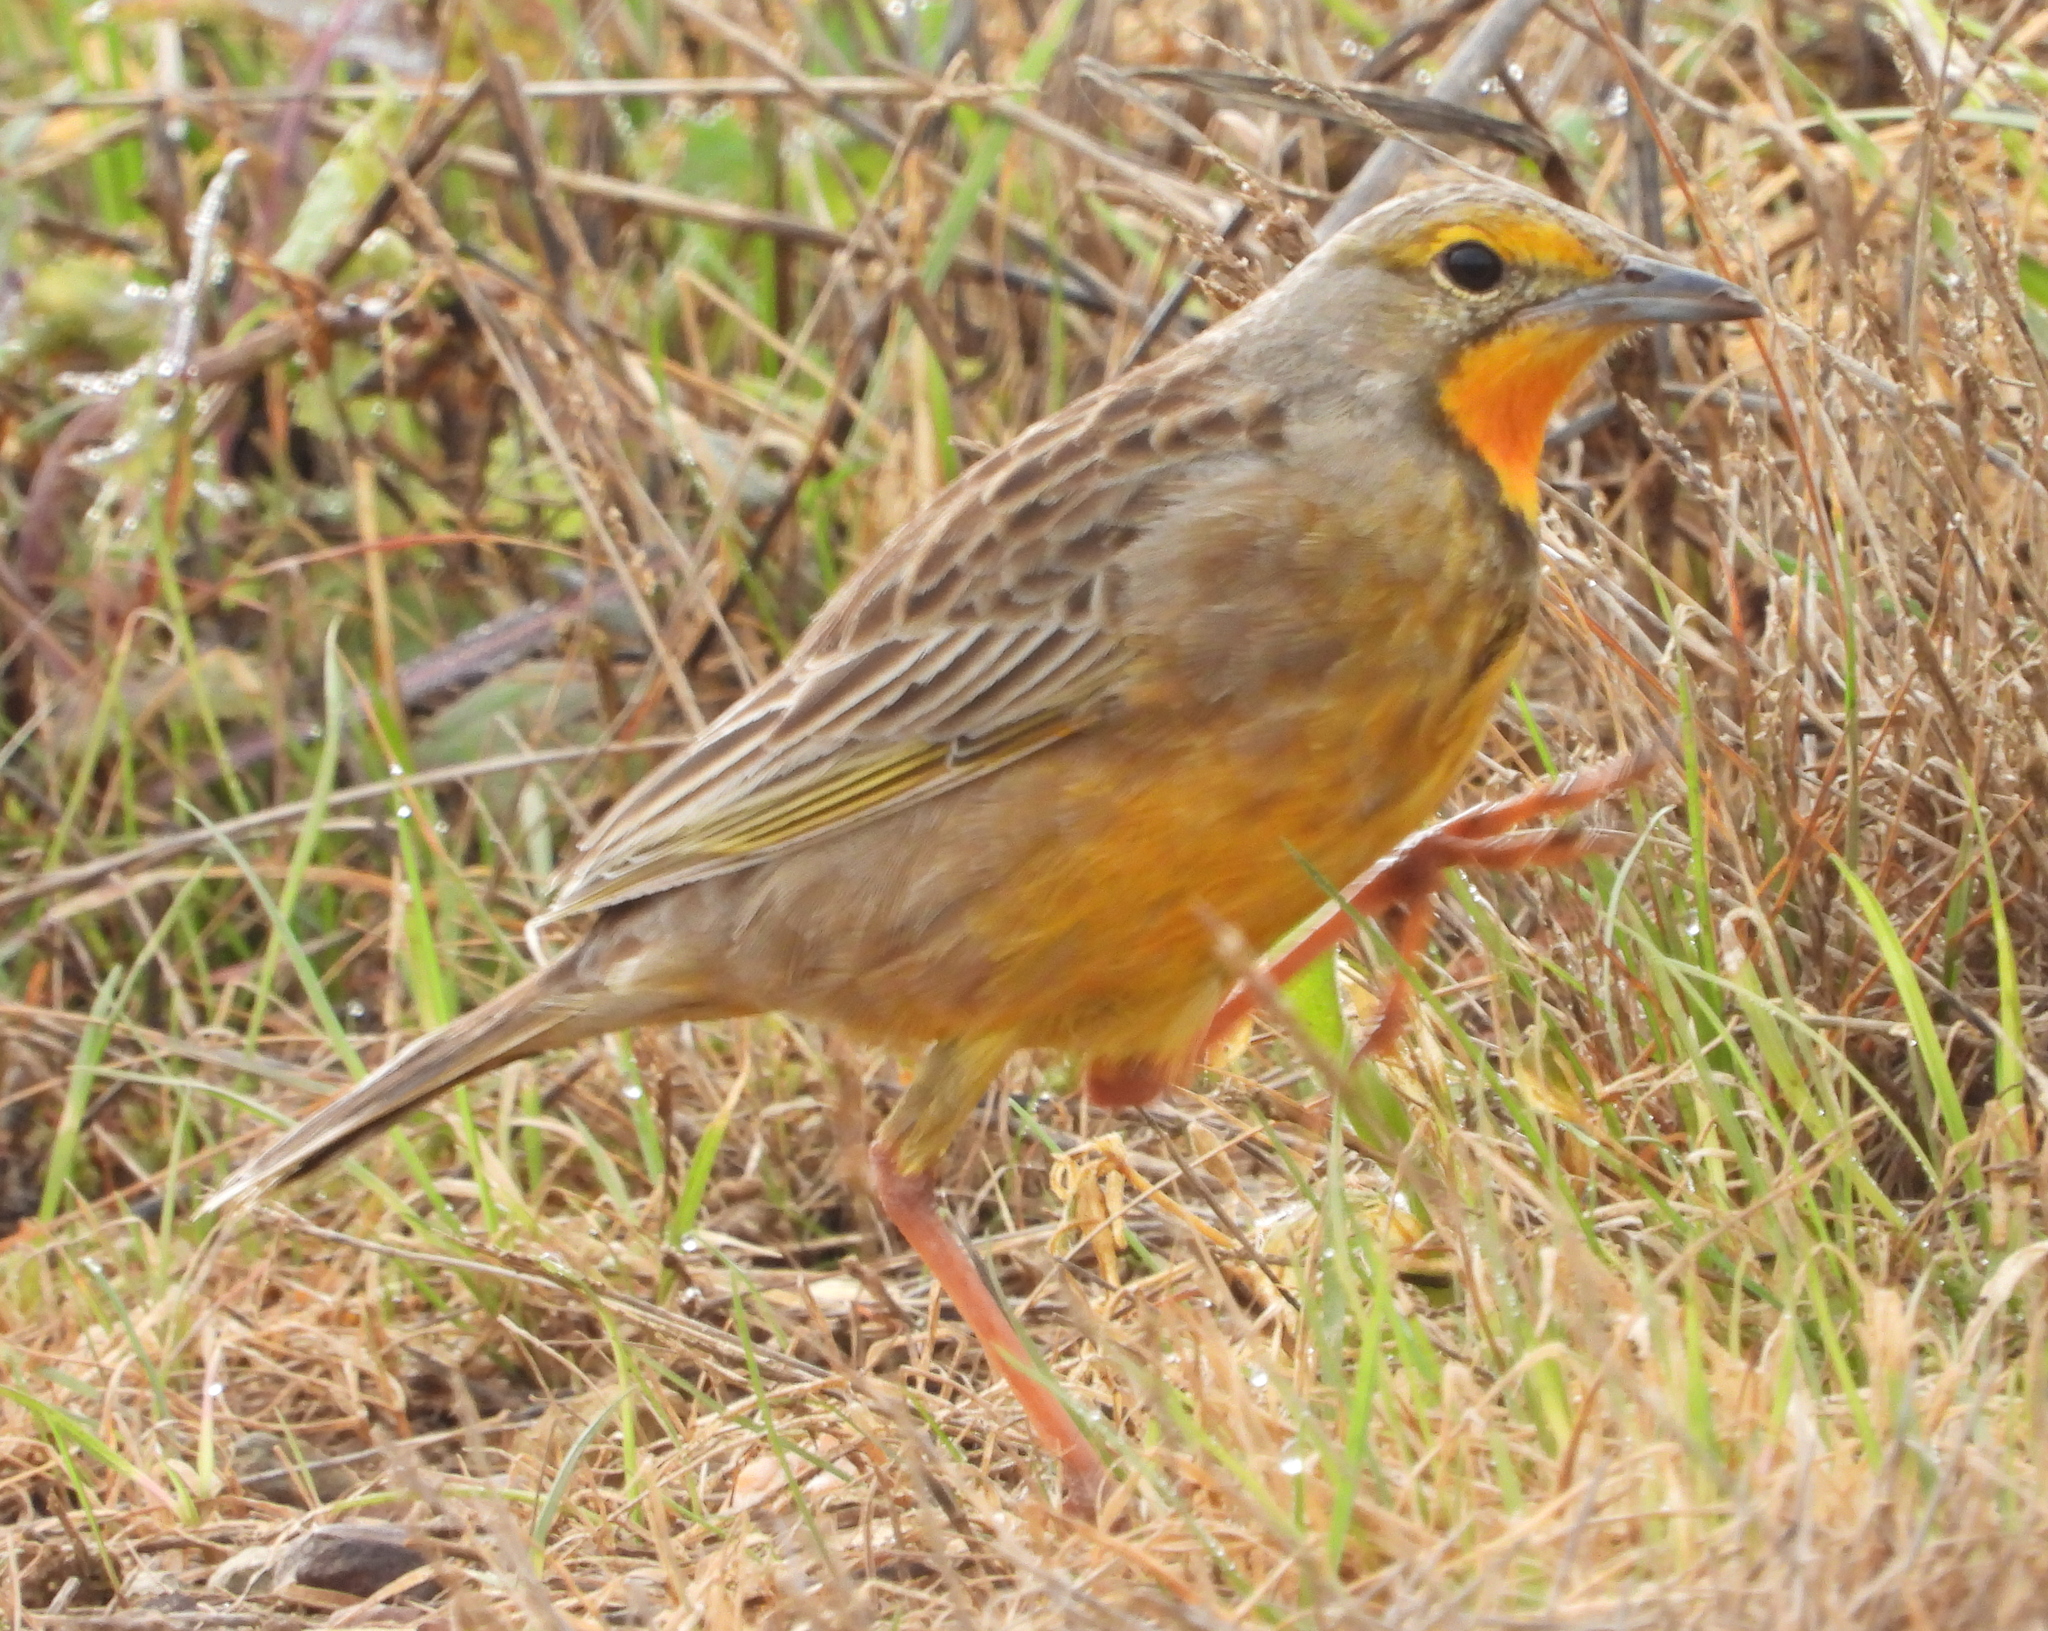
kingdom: Animalia
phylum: Chordata
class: Aves
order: Passeriformes
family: Motacillidae
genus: Macronyx
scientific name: Macronyx capensis
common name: Cape longclaw
